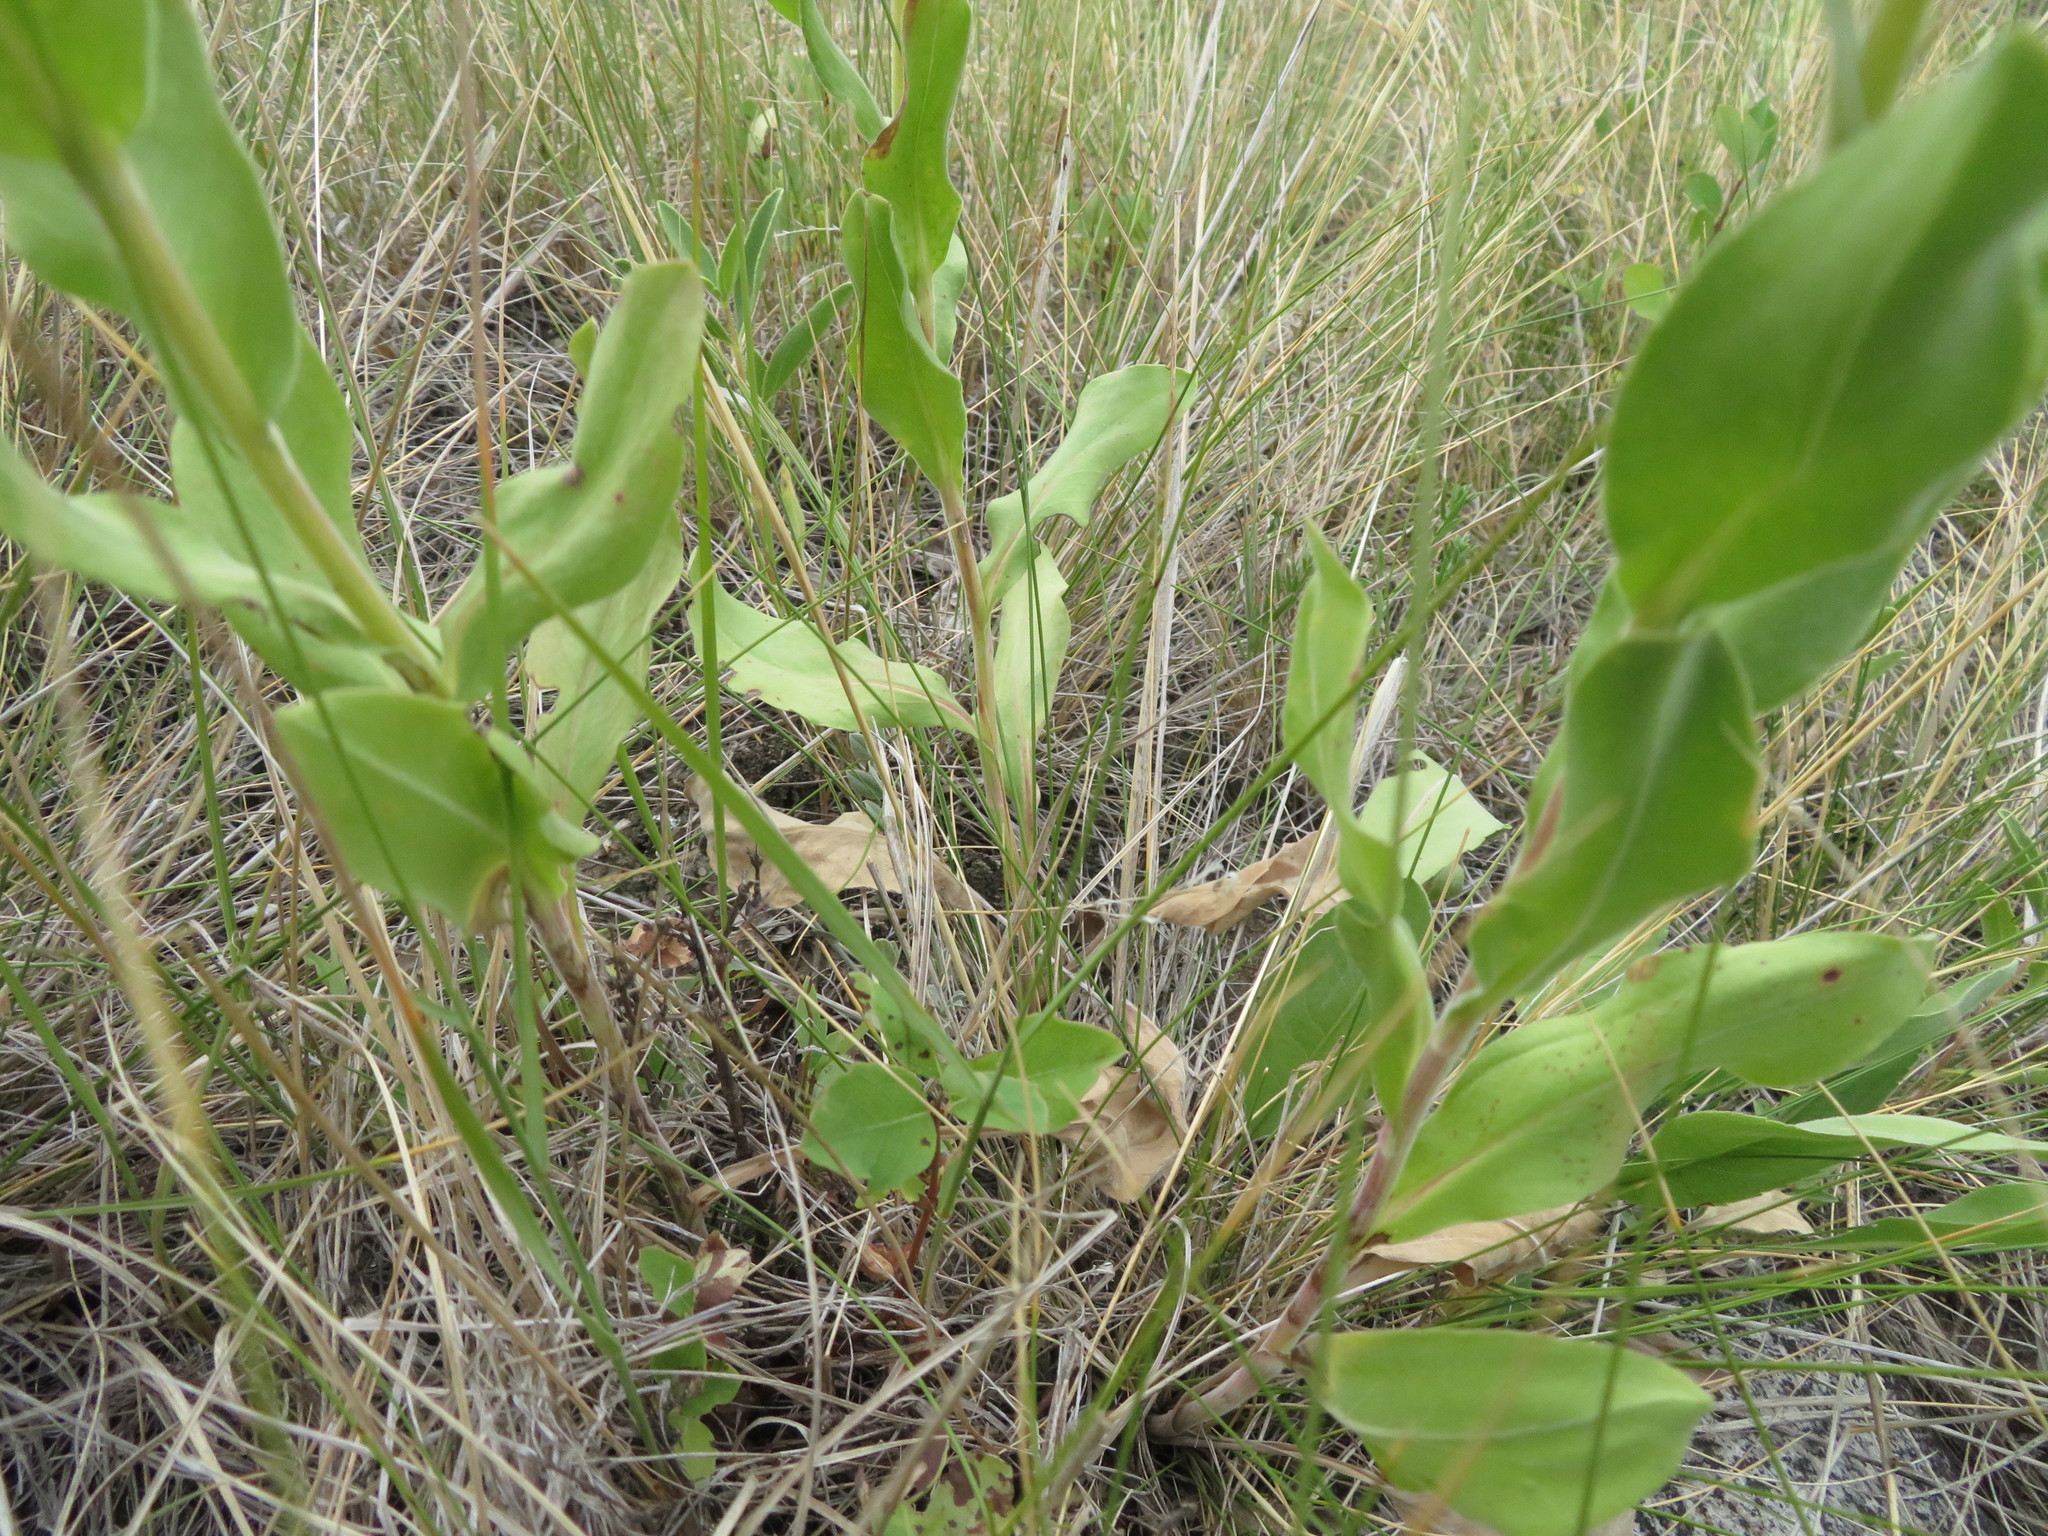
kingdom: Plantae
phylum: Tracheophyta
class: Magnoliopsida
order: Asterales
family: Asteraceae
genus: Solidago
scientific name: Solidago rigida
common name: Rigid goldenrod
